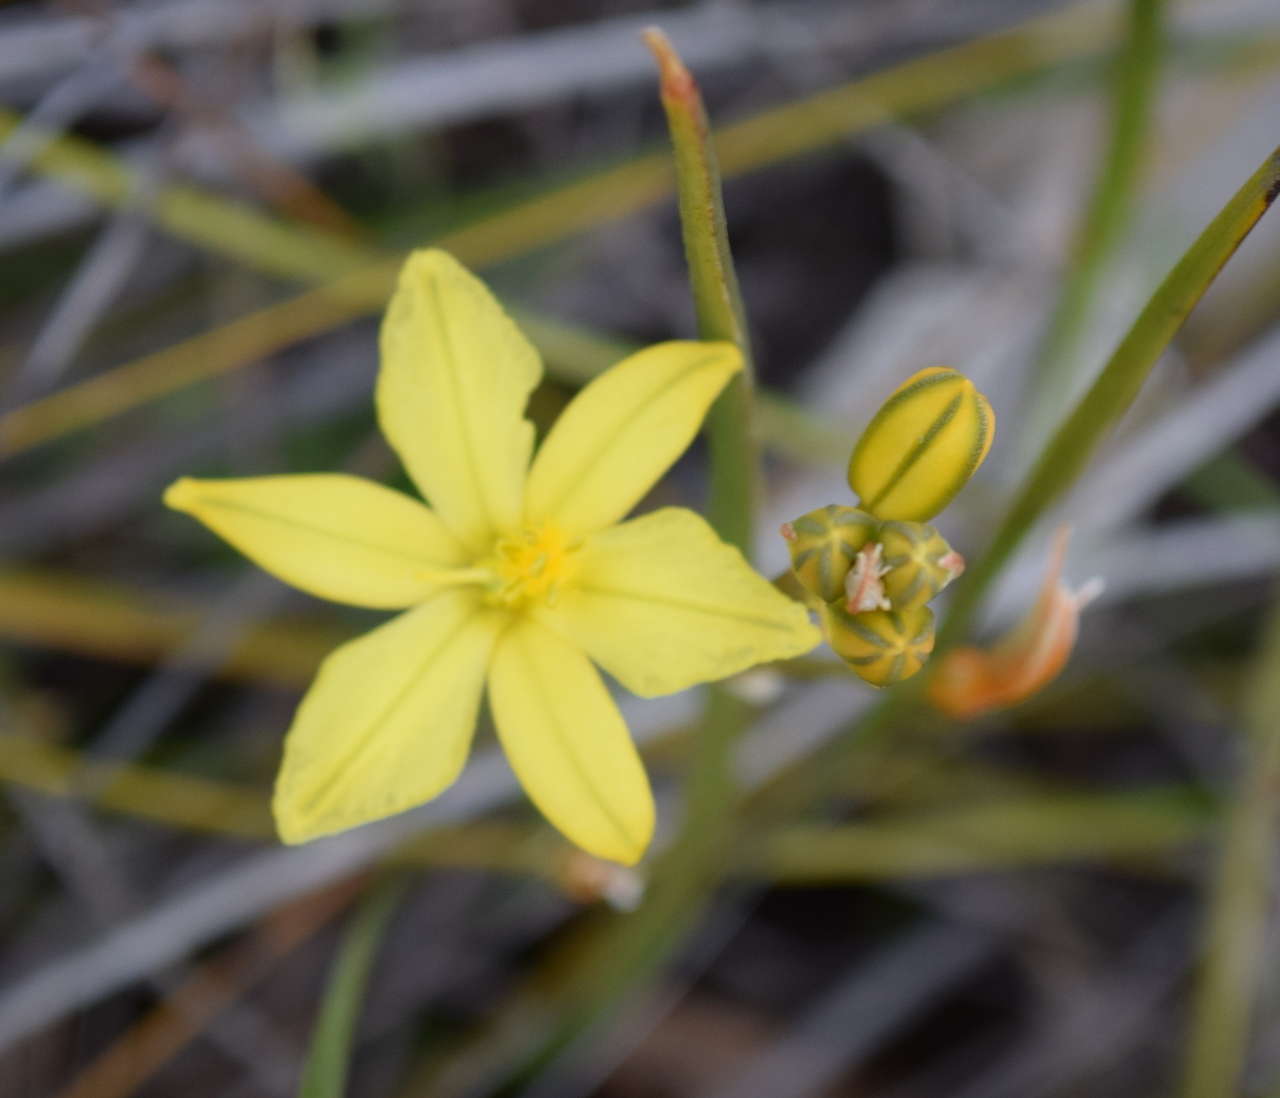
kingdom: Plantae
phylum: Tracheophyta
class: Liliopsida
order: Asparagales
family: Asphodelaceae
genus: Bulbine
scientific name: Bulbine bulbosa
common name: Golden-lily
